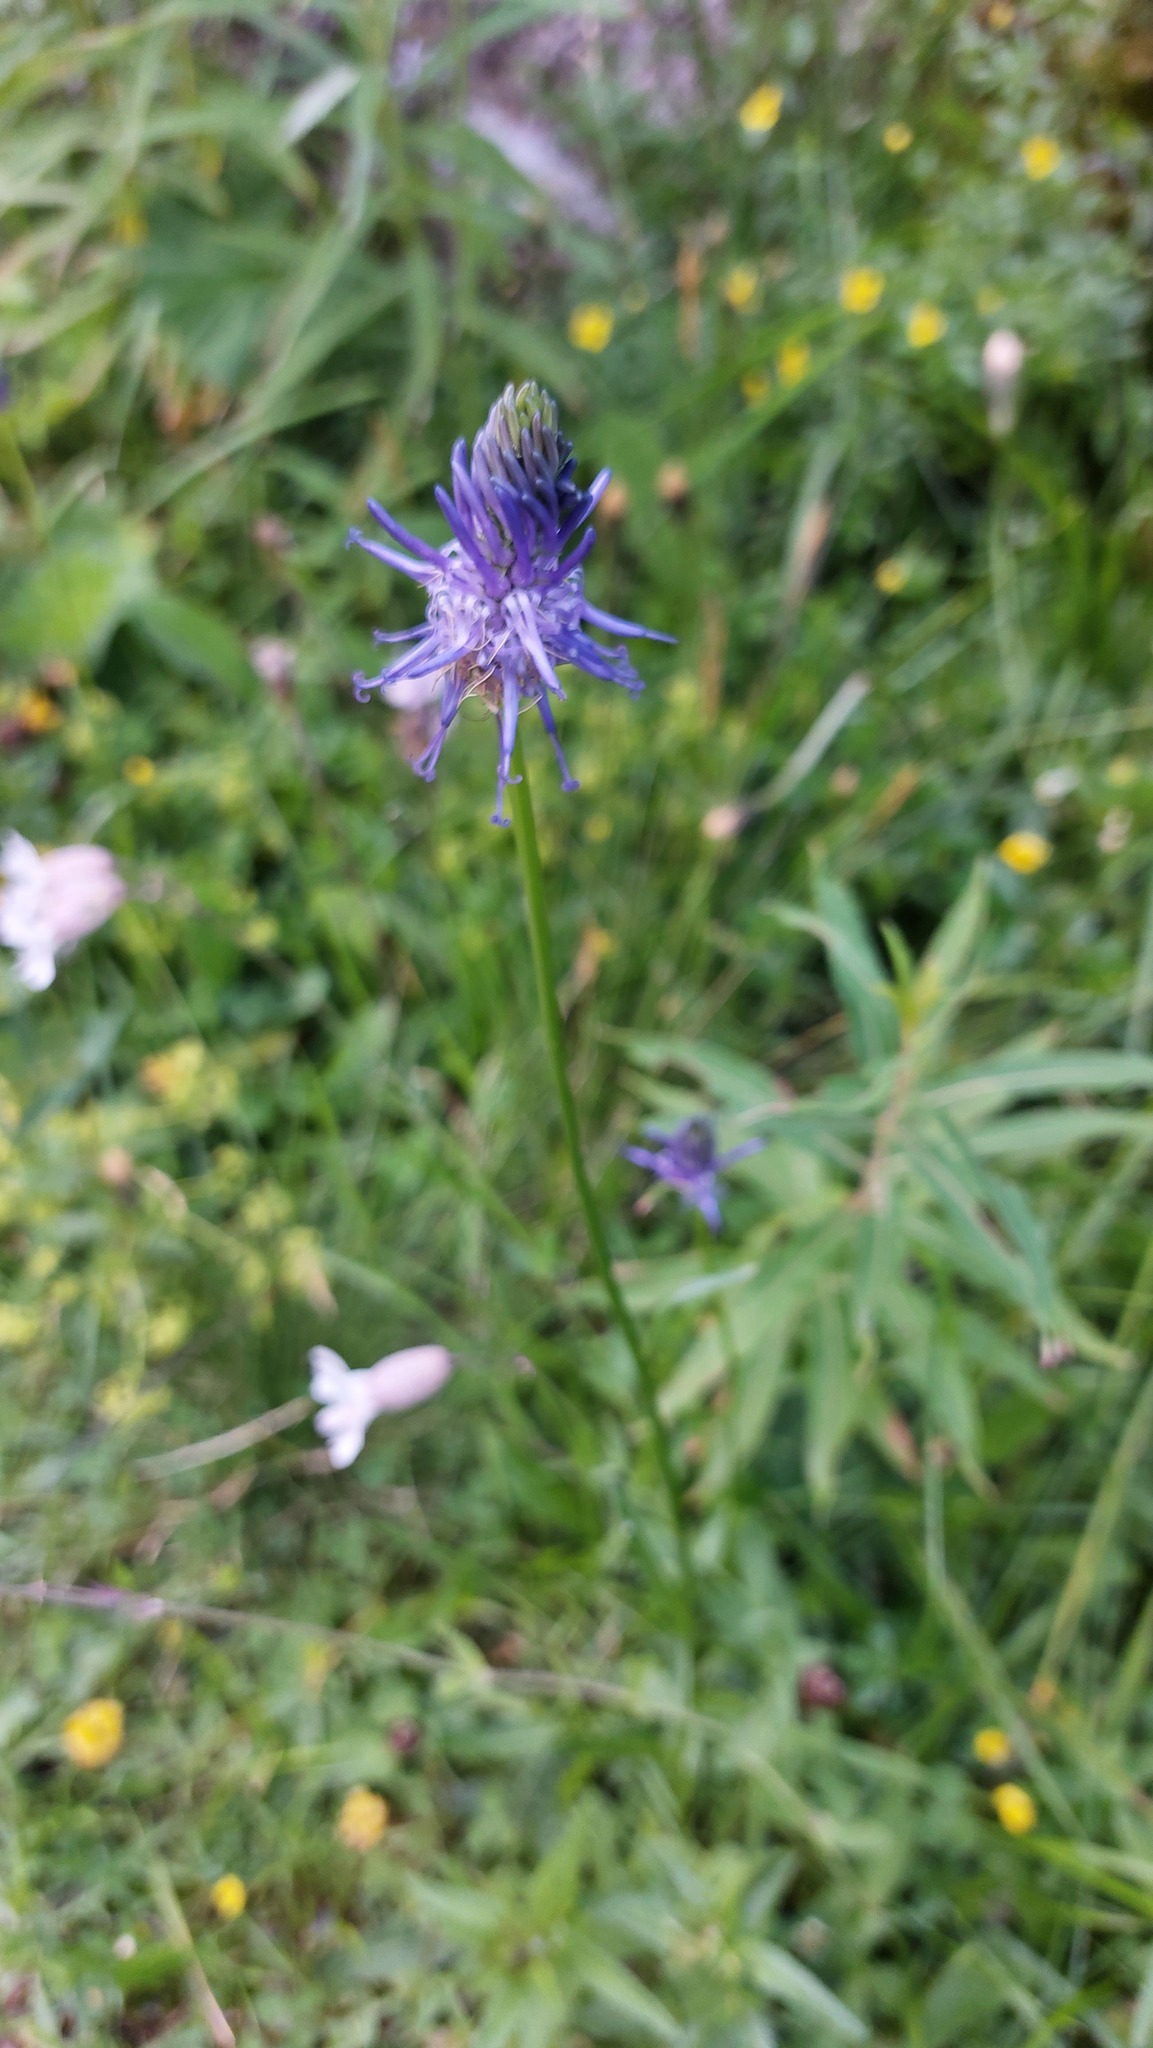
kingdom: Plantae
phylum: Tracheophyta
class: Magnoliopsida
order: Asterales
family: Campanulaceae
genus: Phyteuma
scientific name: Phyteuma betonicifolium
